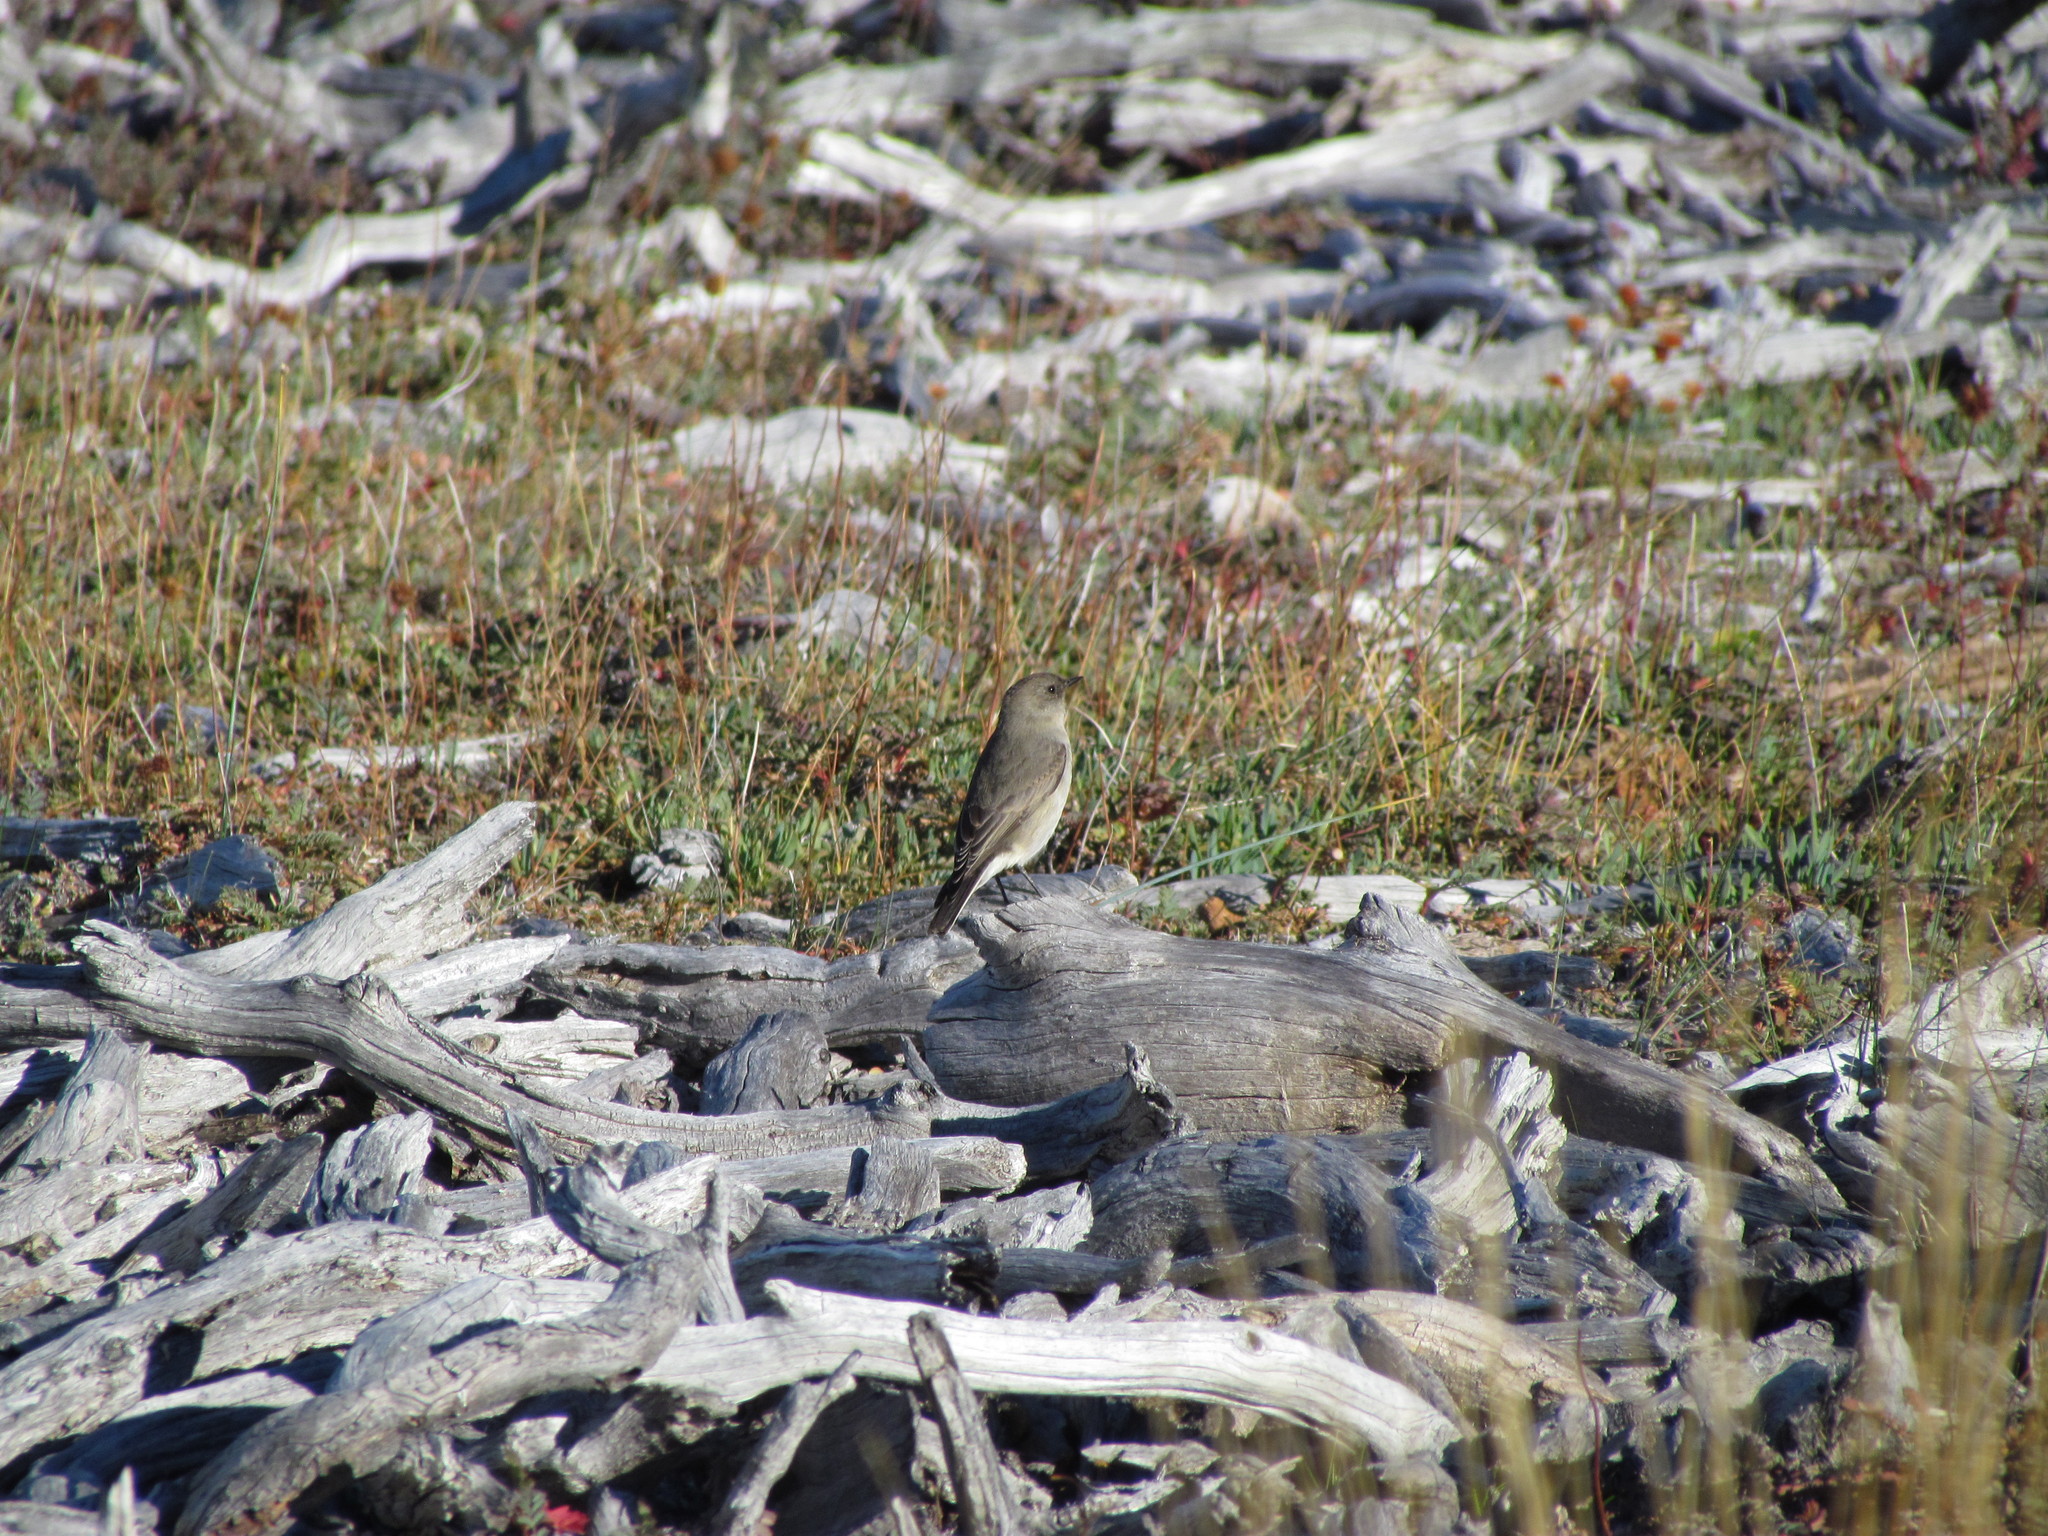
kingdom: Animalia
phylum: Chordata
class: Aves
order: Passeriformes
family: Tyrannidae
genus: Muscisaxicola
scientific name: Muscisaxicola maclovianus
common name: Dark-faced ground tyrant
